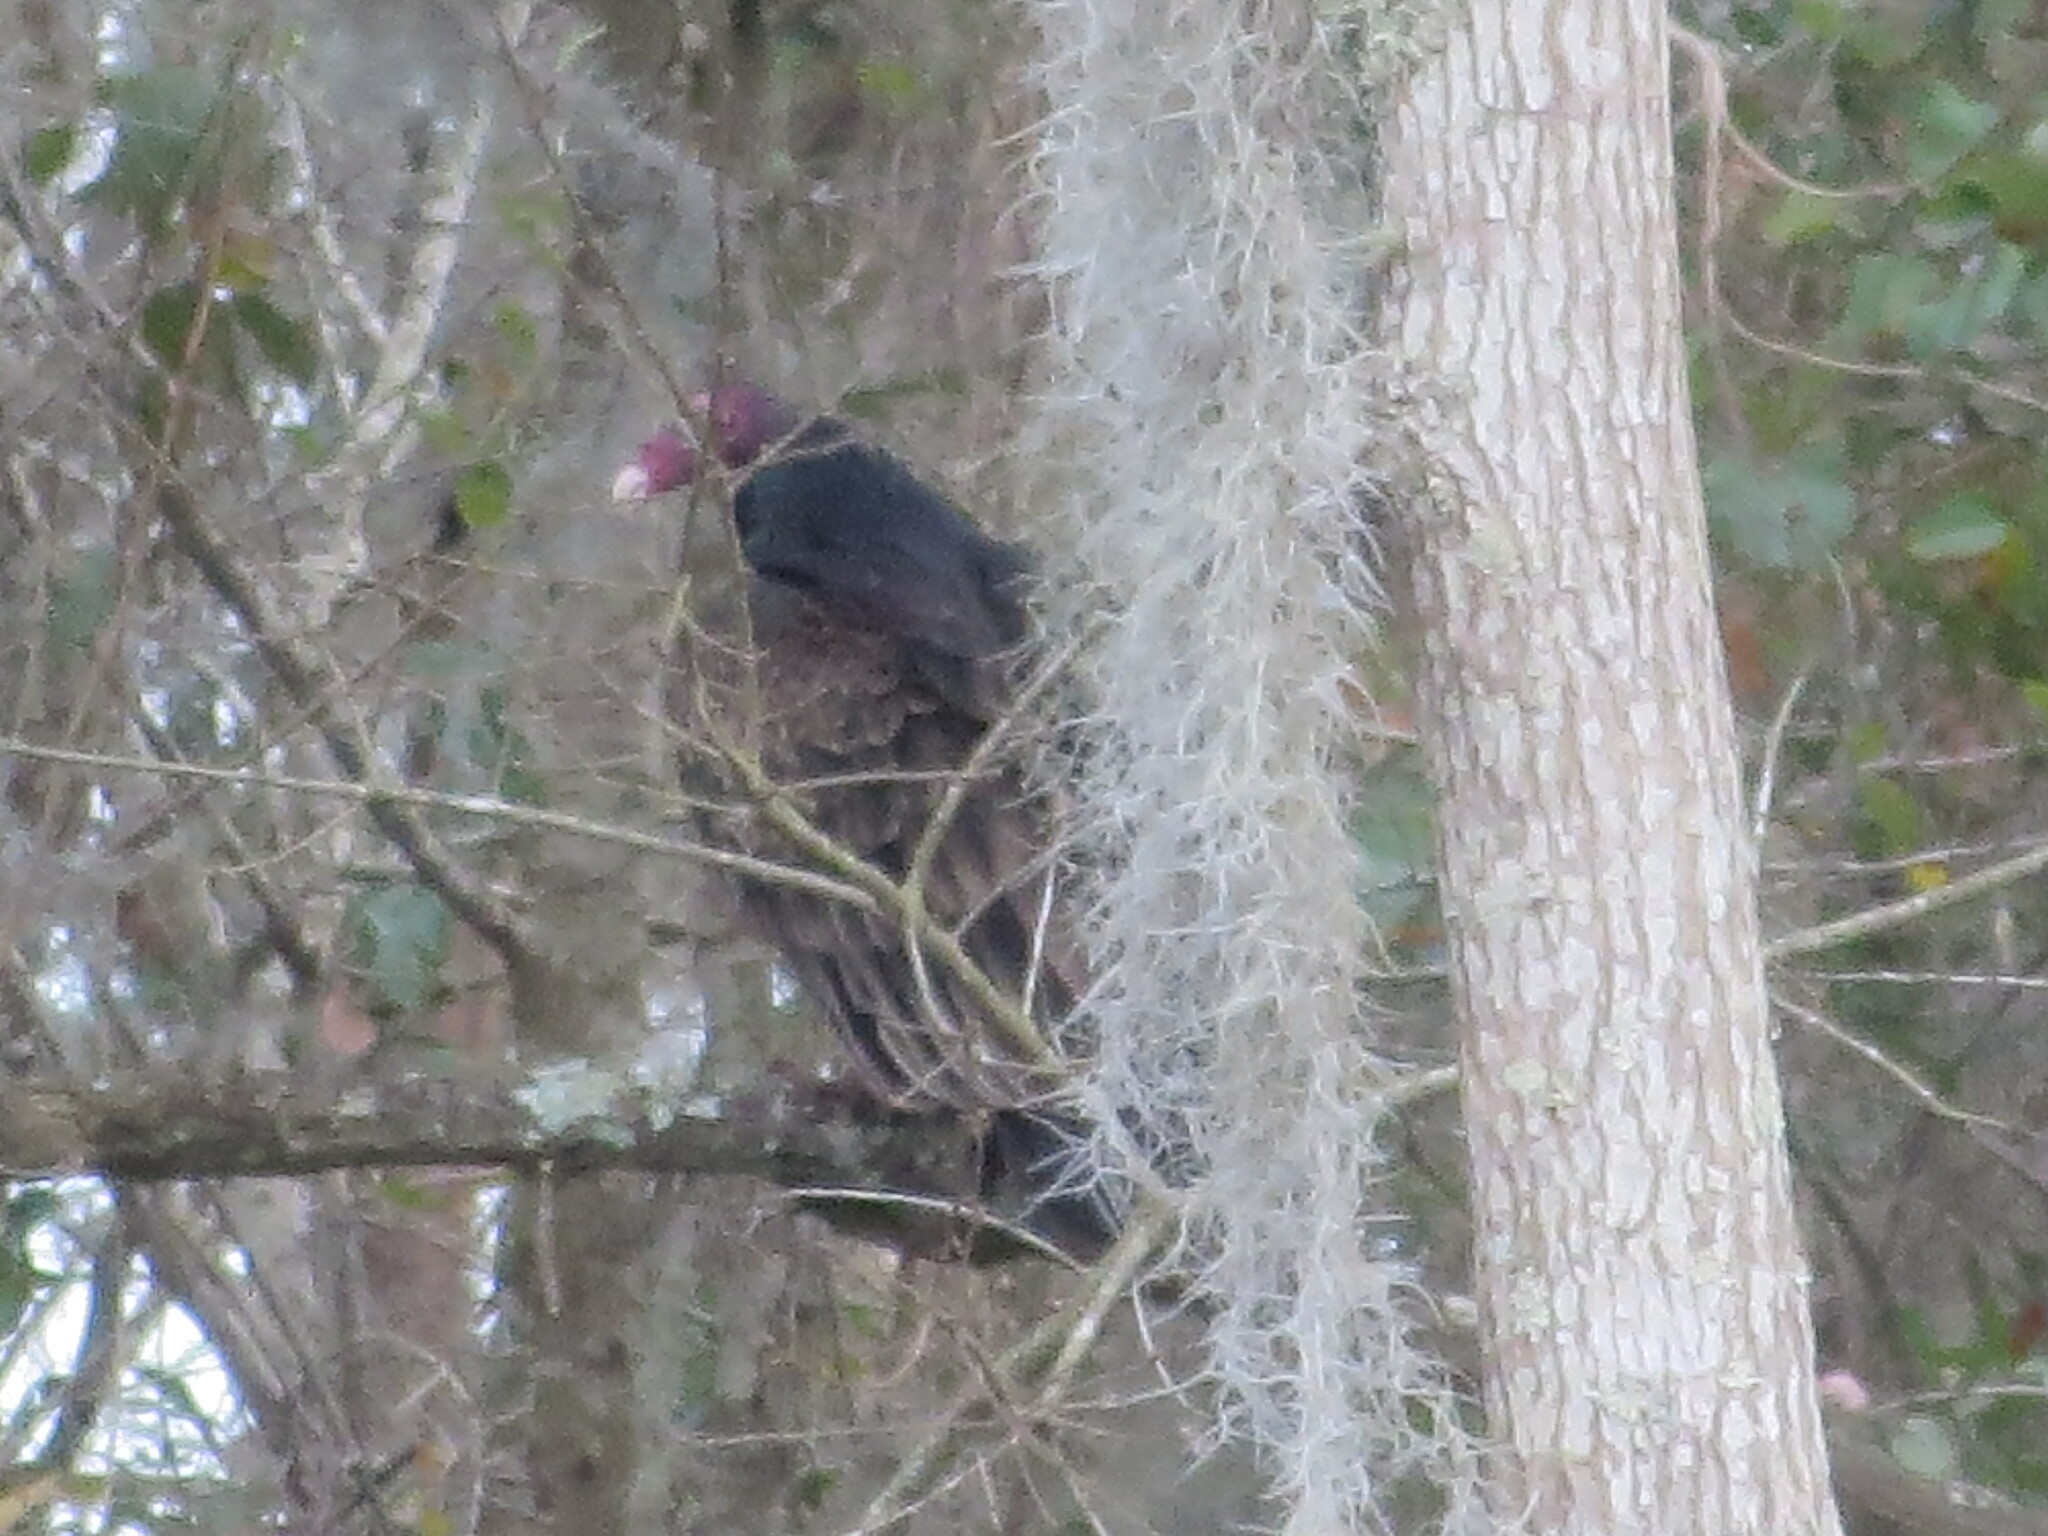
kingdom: Animalia
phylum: Chordata
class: Aves
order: Accipitriformes
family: Cathartidae
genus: Cathartes
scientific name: Cathartes aura
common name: Turkey vulture
